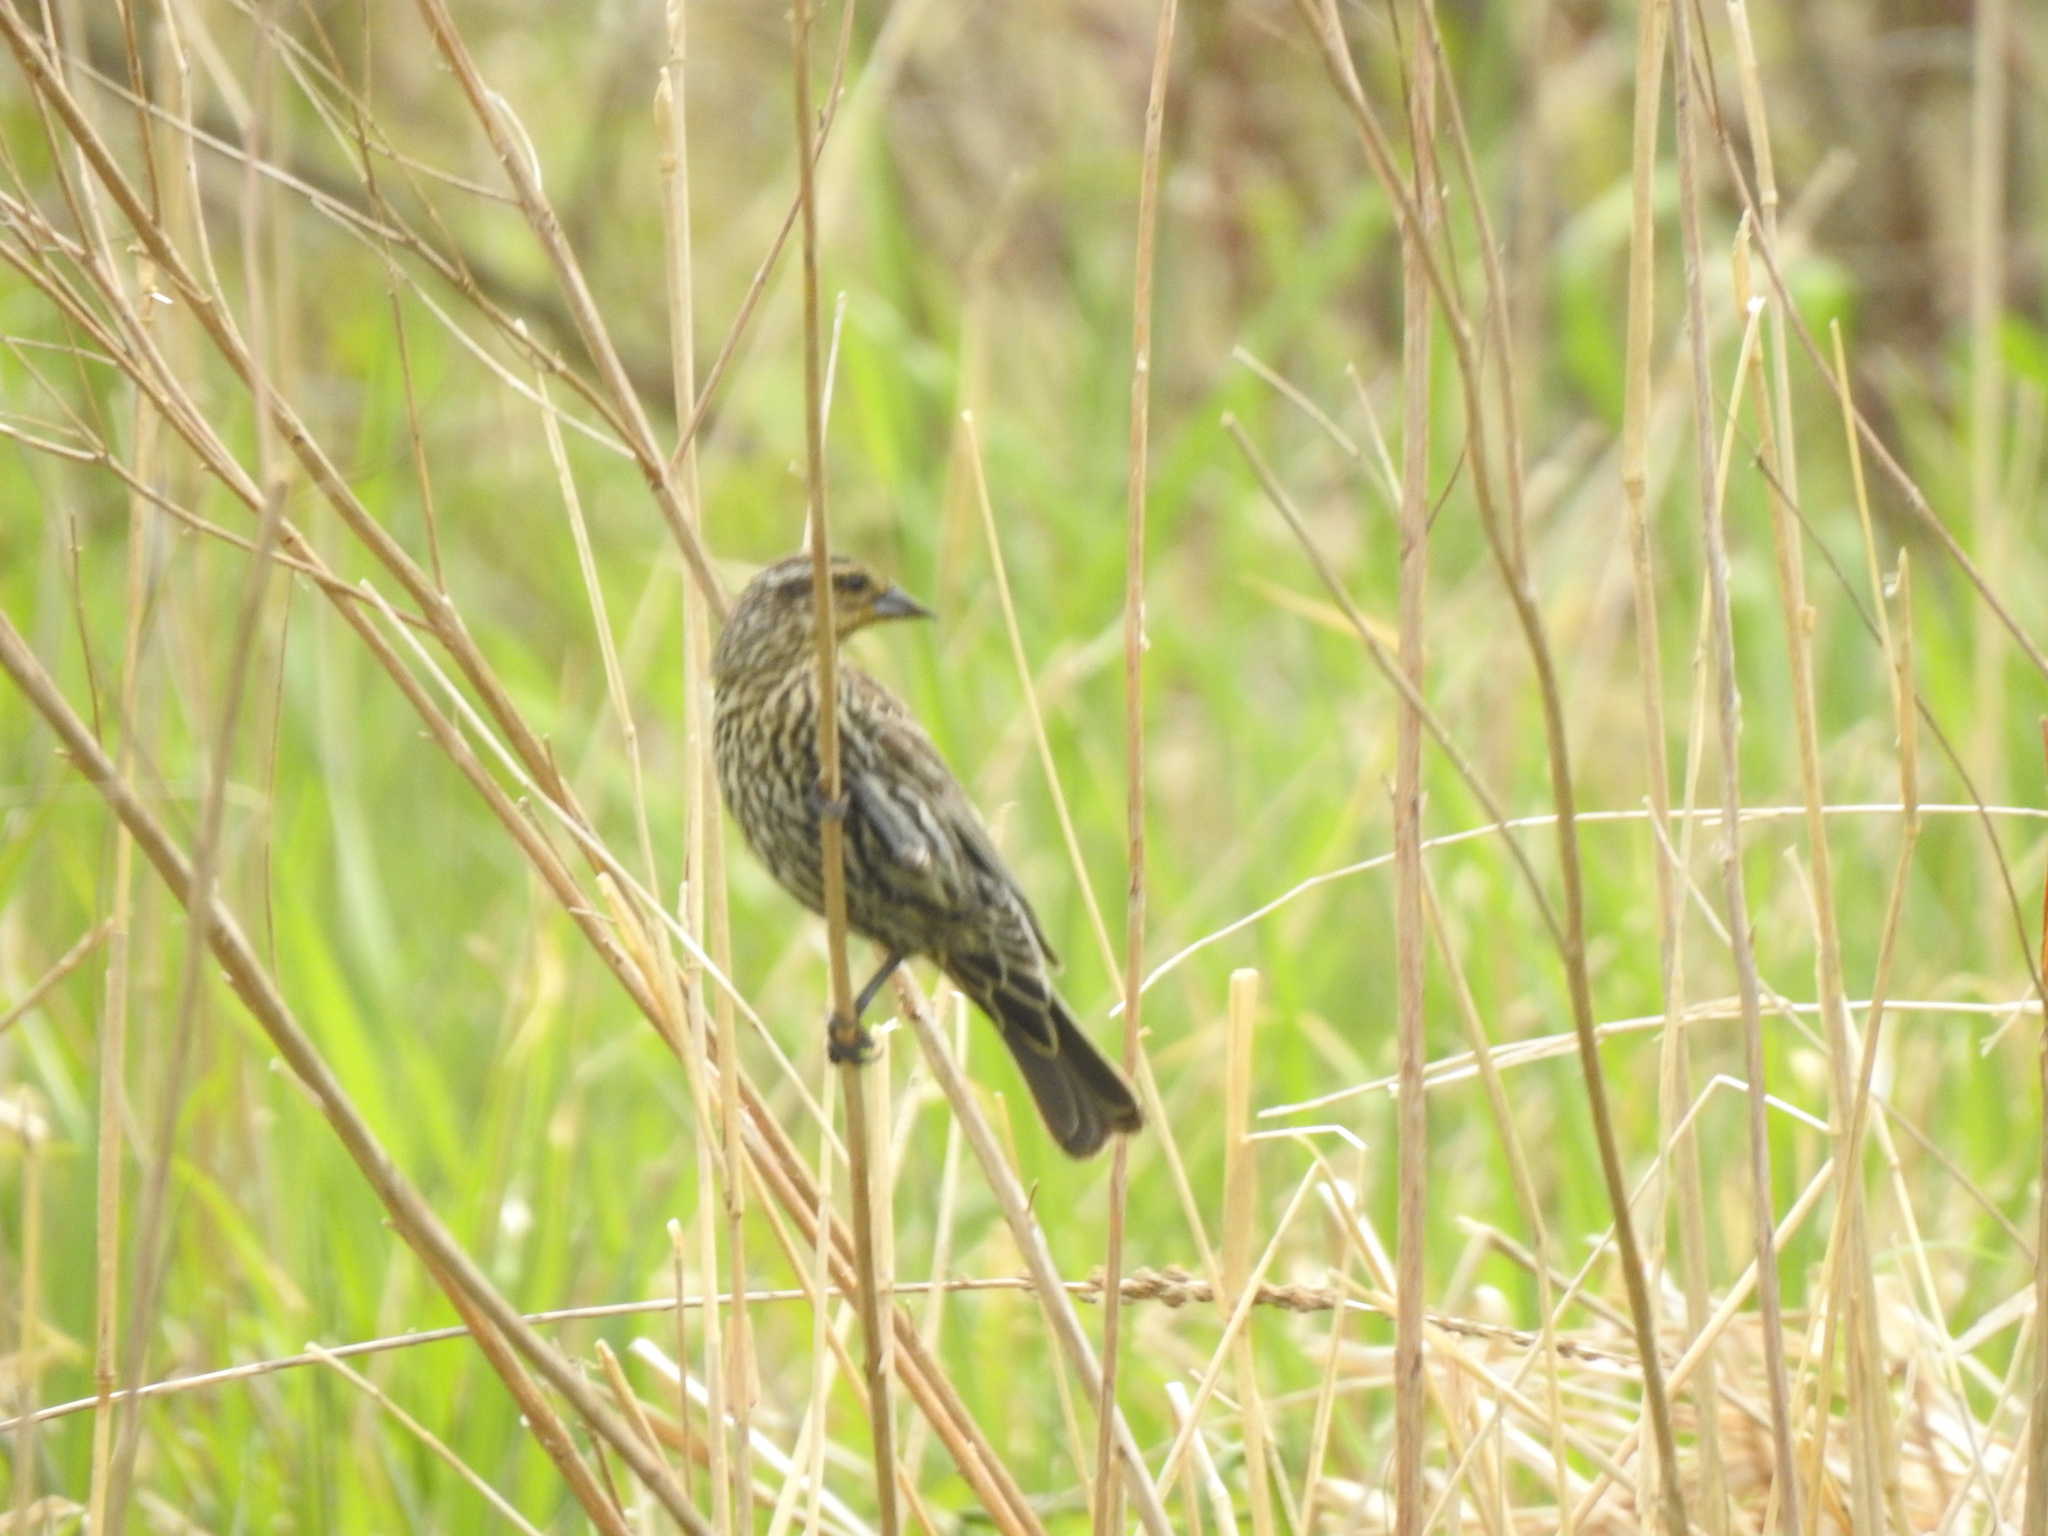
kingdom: Animalia
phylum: Chordata
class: Aves
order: Passeriformes
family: Icteridae
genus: Agelaius
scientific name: Agelaius phoeniceus
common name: Red-winged blackbird
